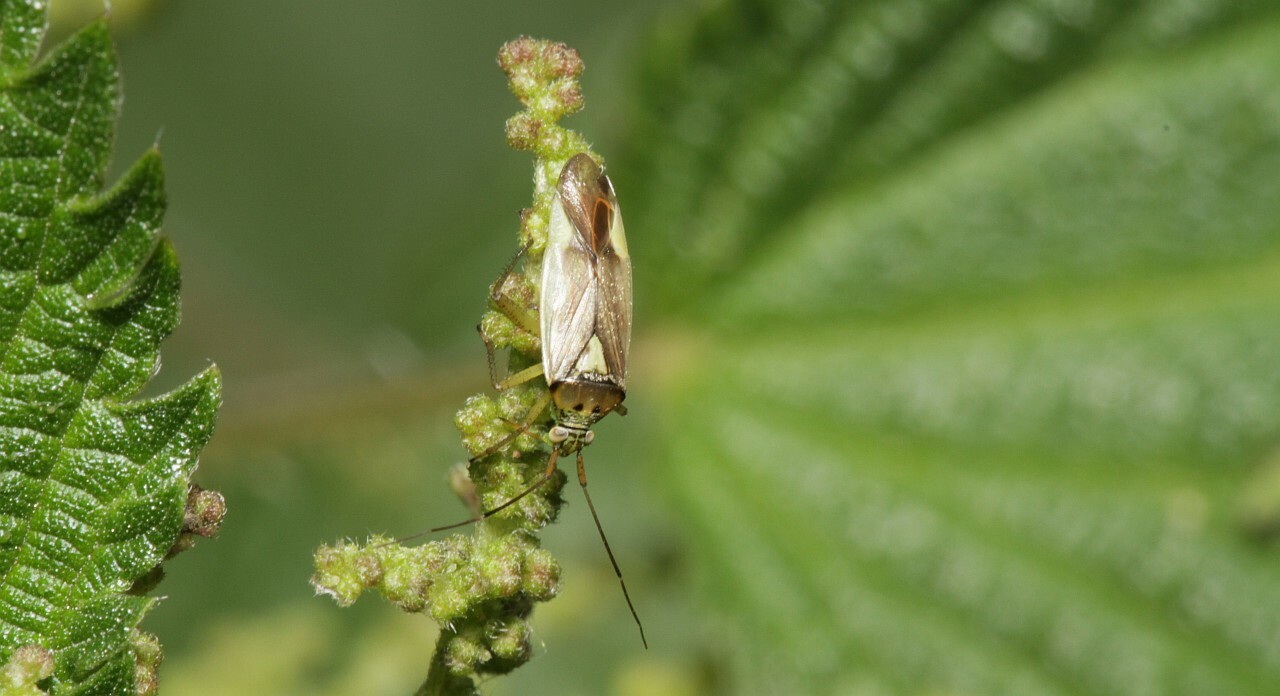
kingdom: Animalia
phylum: Arthropoda
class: Insecta
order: Hemiptera
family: Miridae
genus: Closterotomus
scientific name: Closterotomus trivialis
